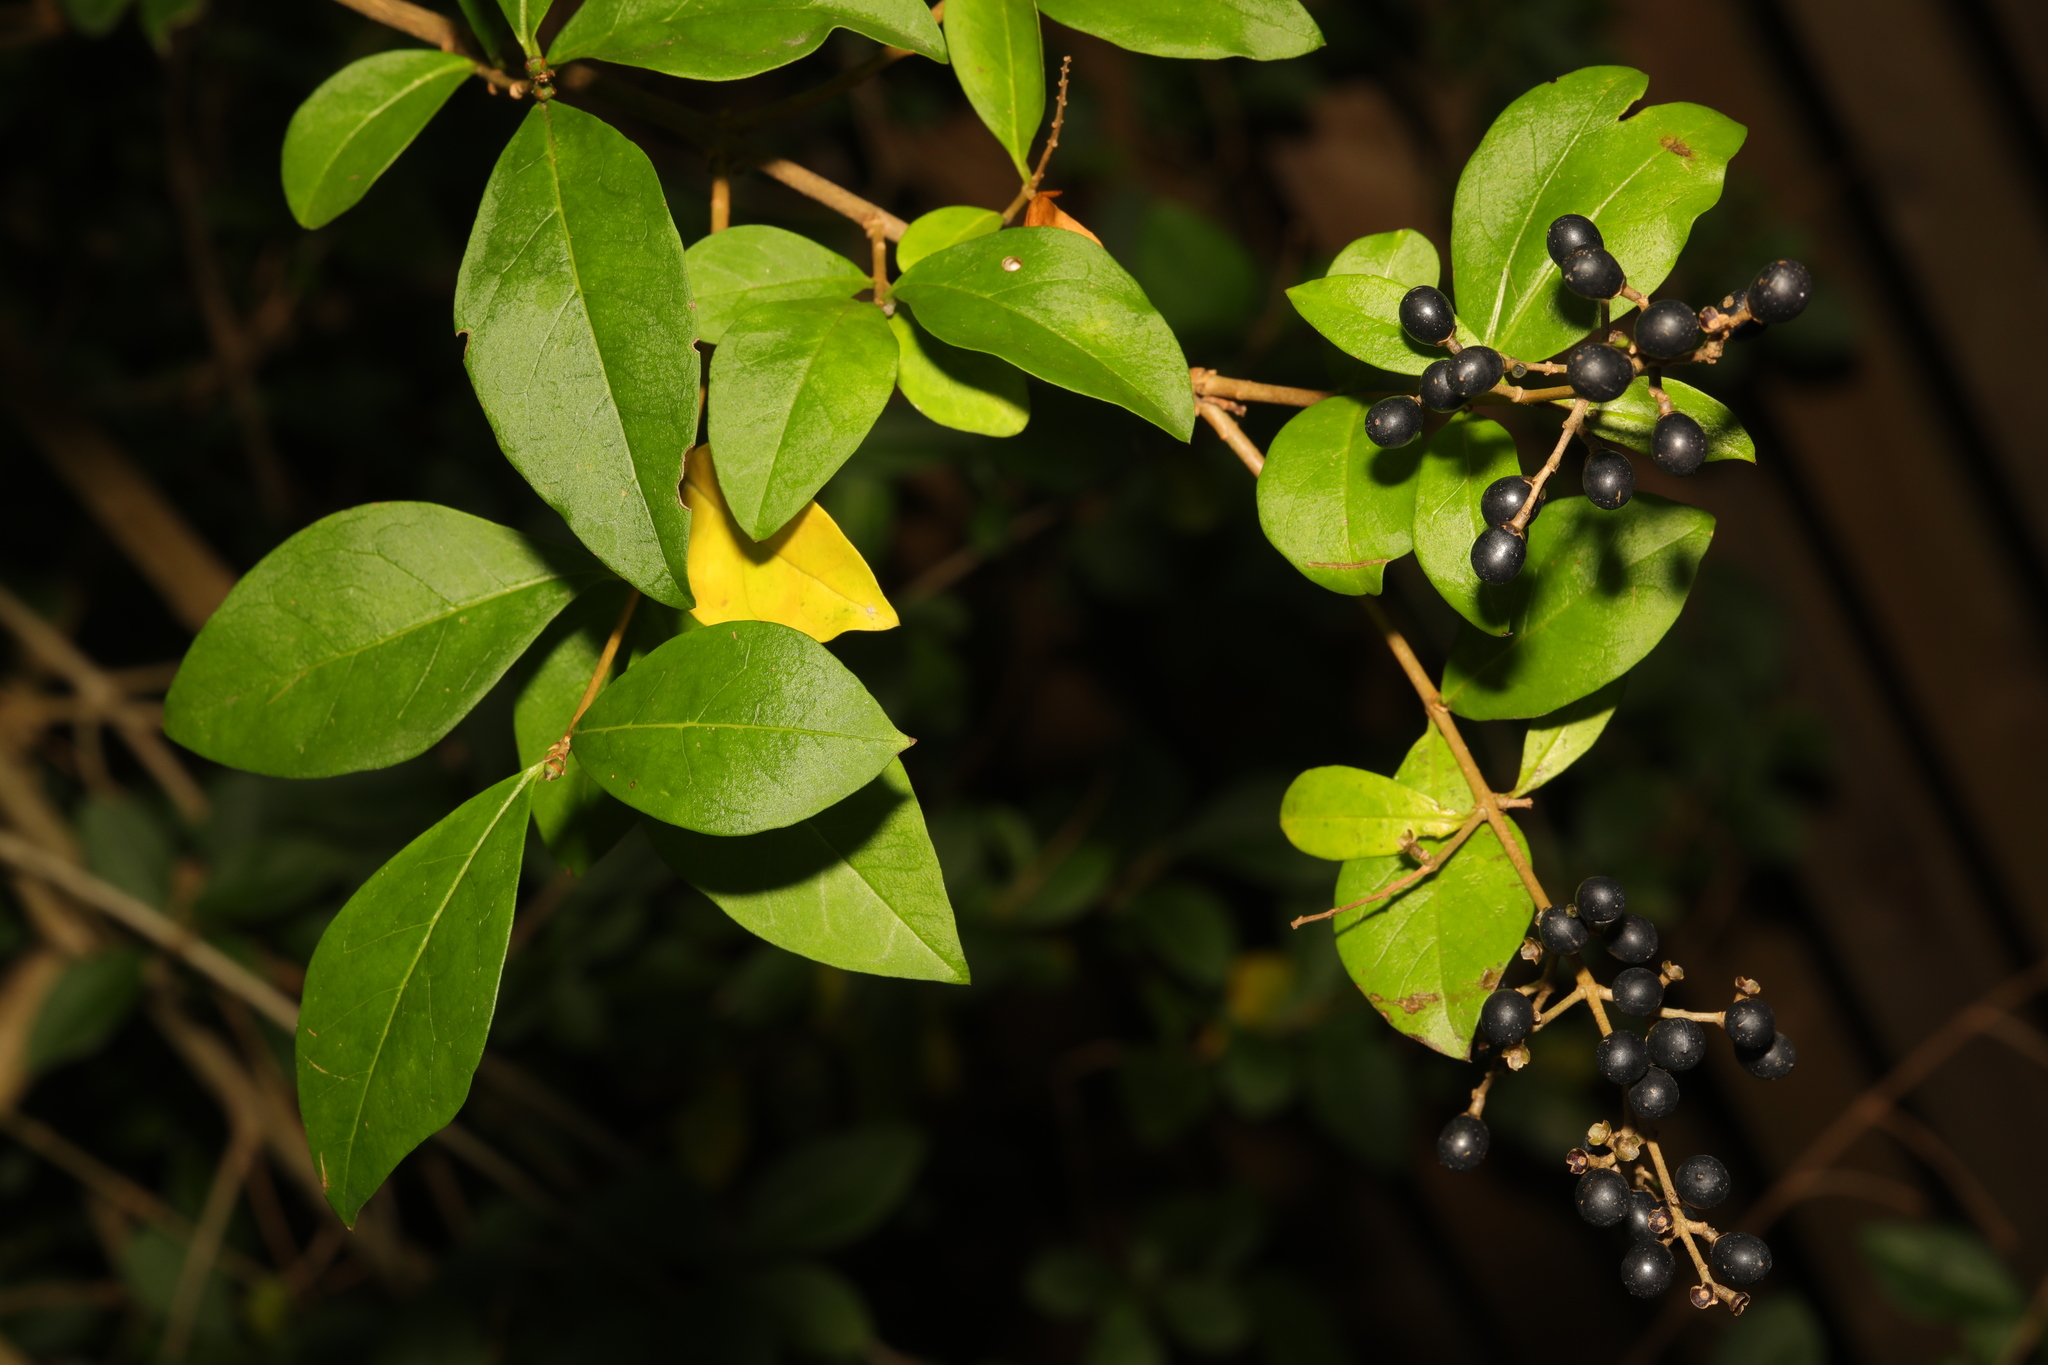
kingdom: Plantae
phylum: Tracheophyta
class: Magnoliopsida
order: Lamiales
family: Oleaceae
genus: Ligustrum
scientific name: Ligustrum ovalifolium
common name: California privet
